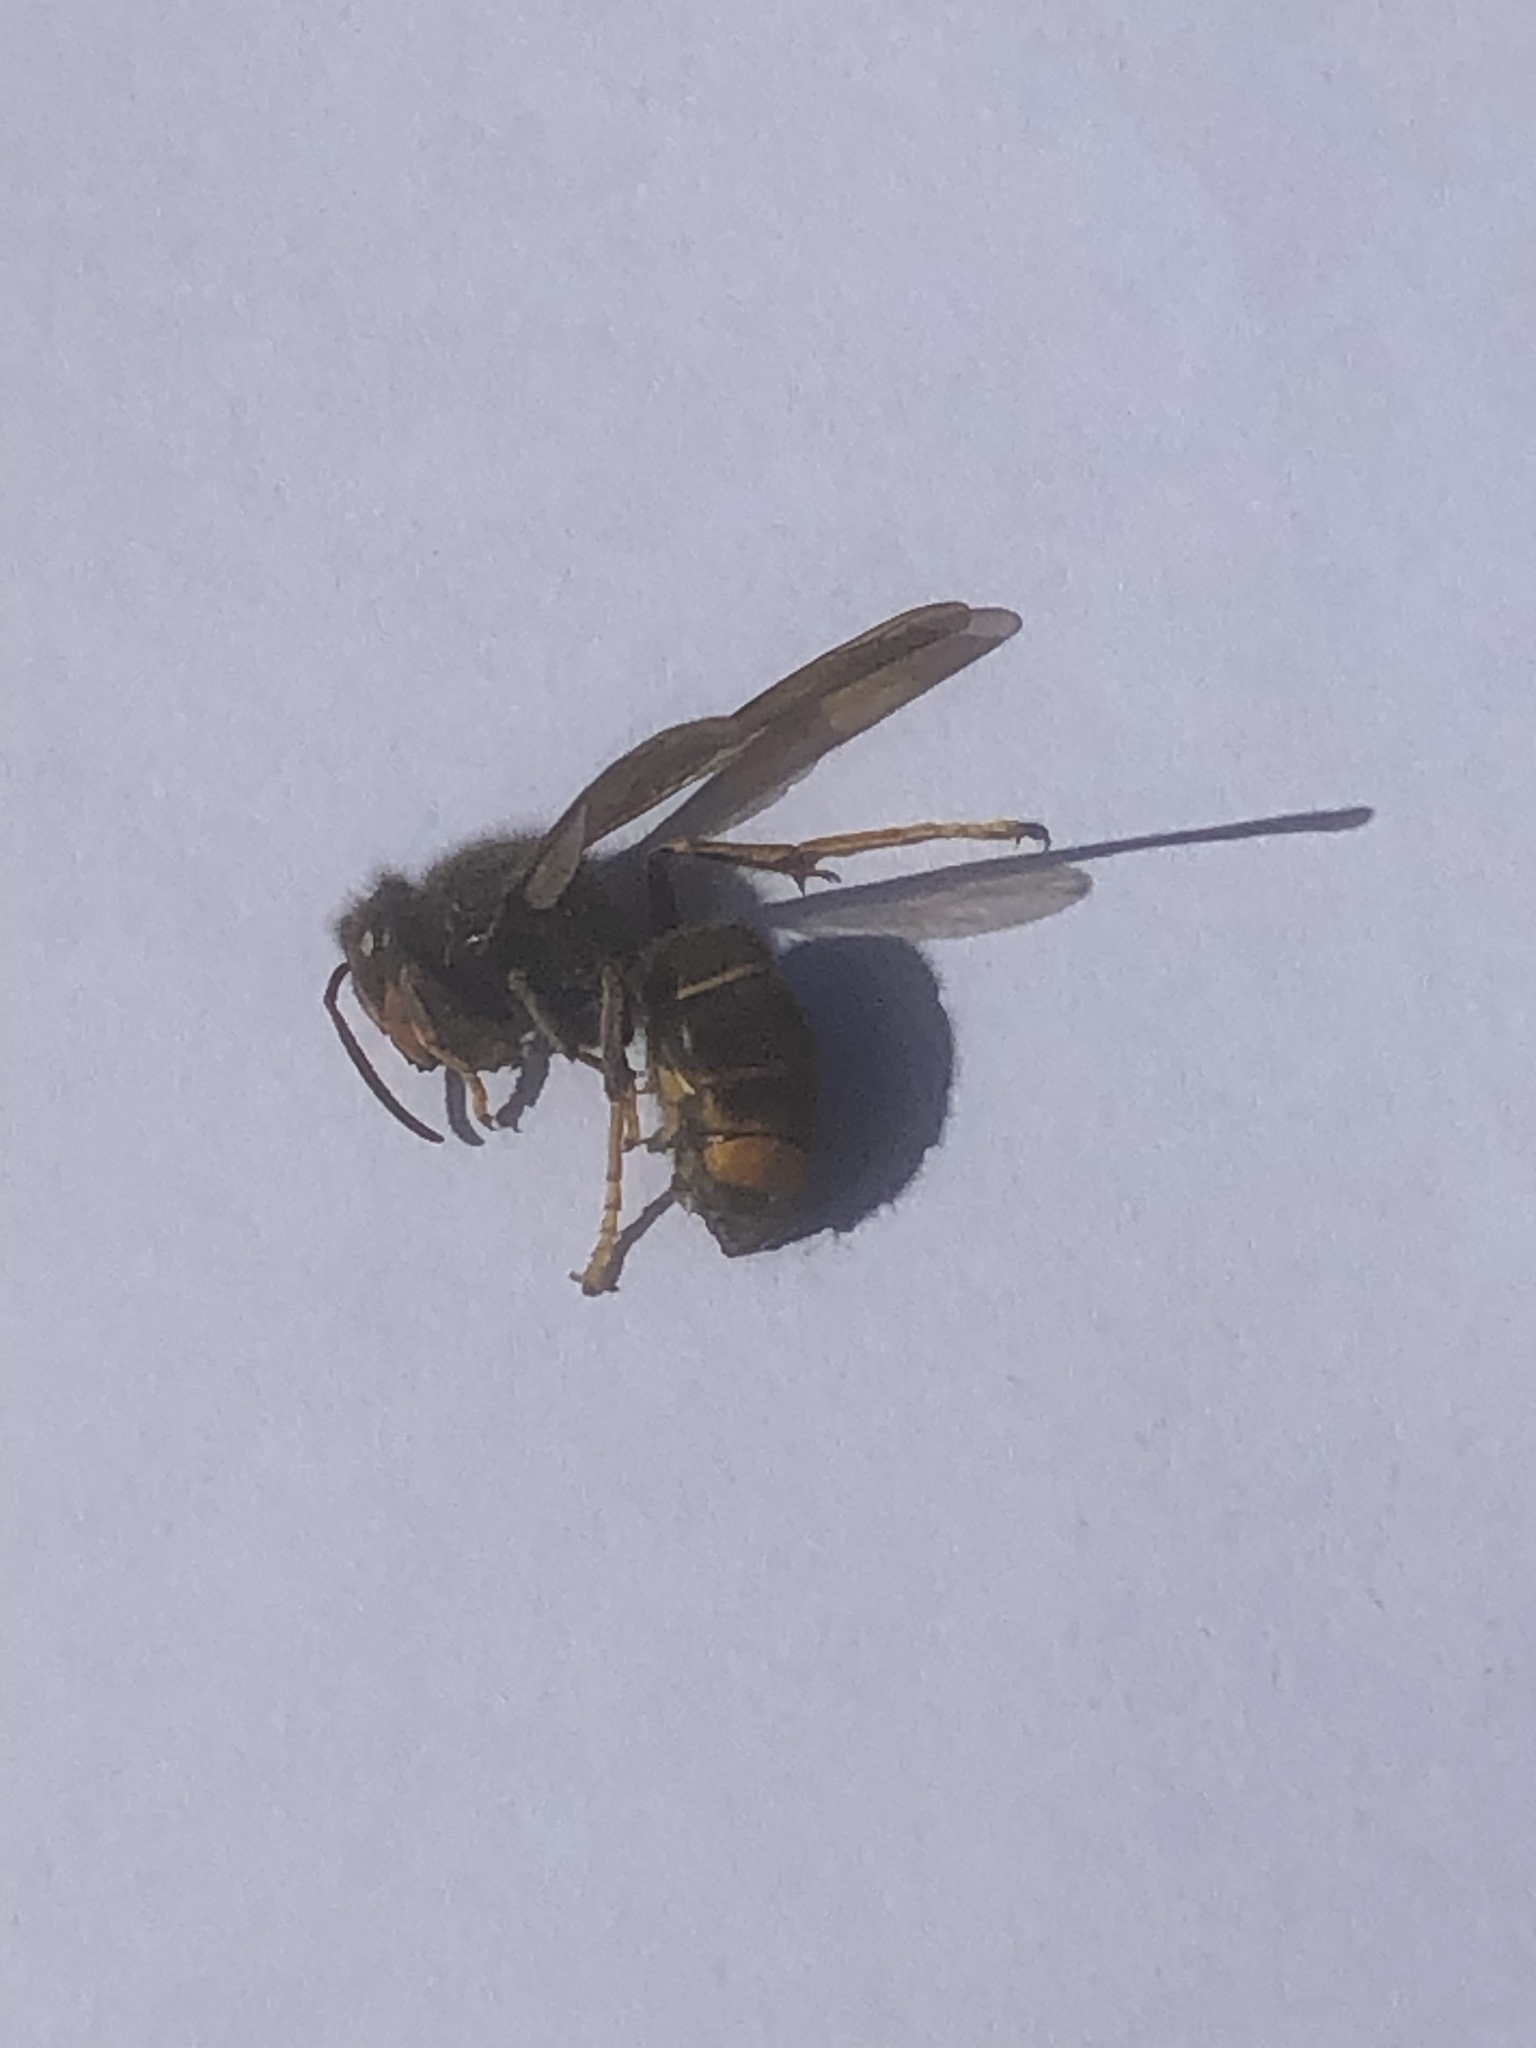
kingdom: Animalia
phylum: Arthropoda
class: Insecta
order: Hymenoptera
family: Vespidae
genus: Vespa
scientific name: Vespa velutina
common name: Asian hornet
